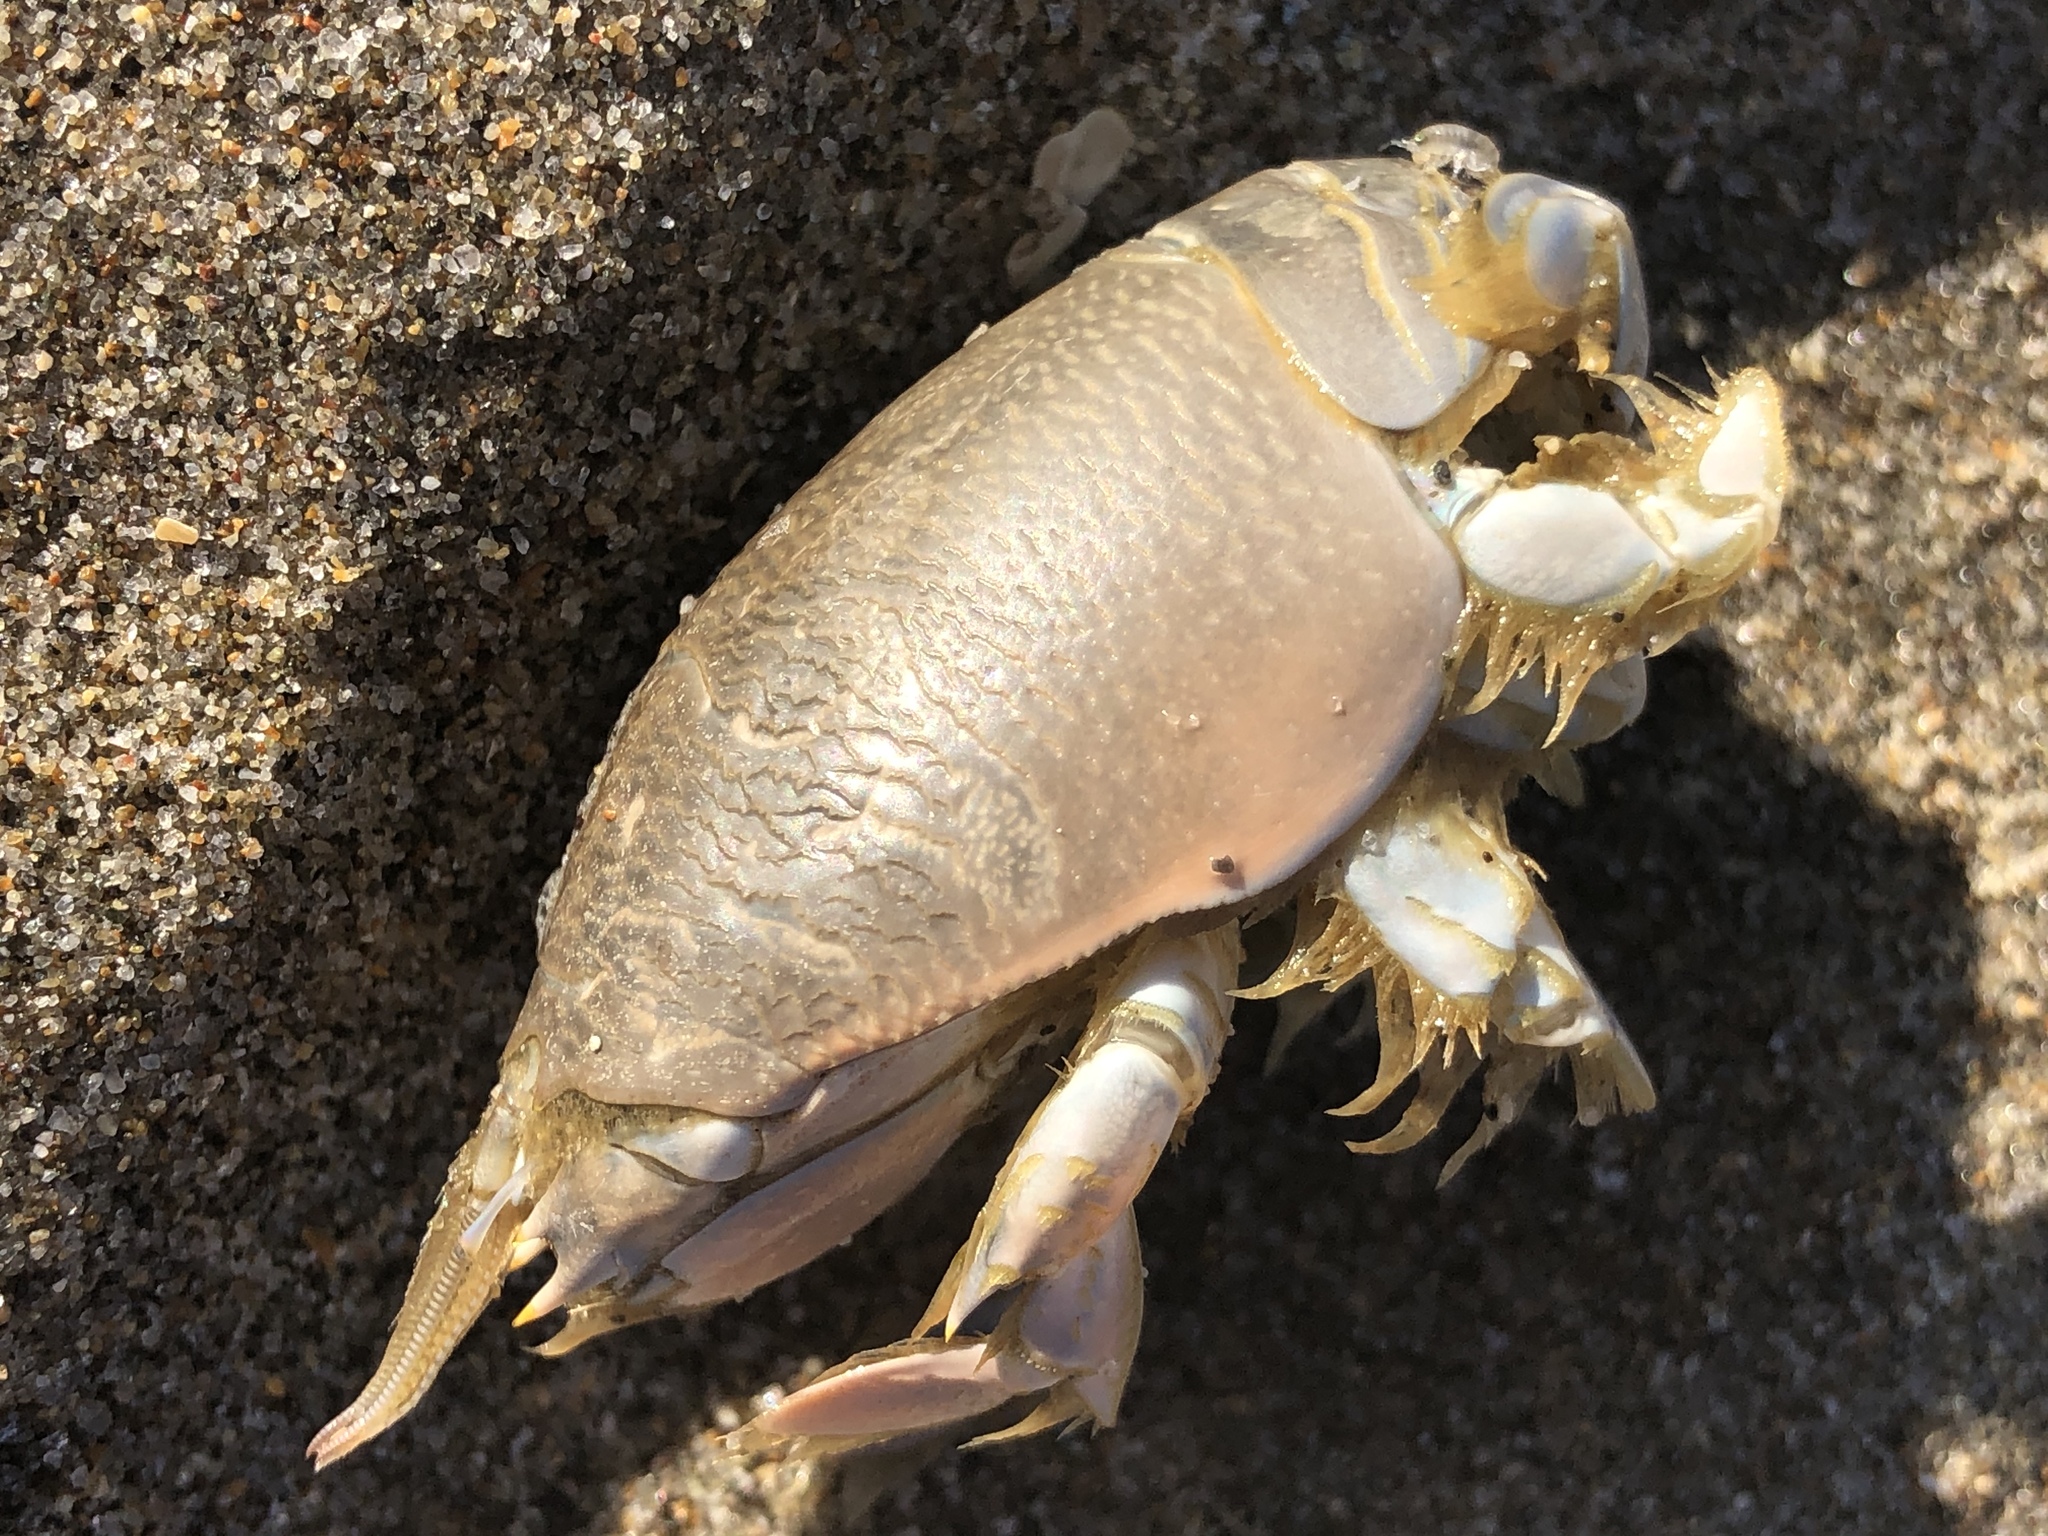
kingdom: Animalia
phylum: Arthropoda
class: Malacostraca
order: Decapoda
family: Hippidae
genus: Emerita
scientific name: Emerita analoga
